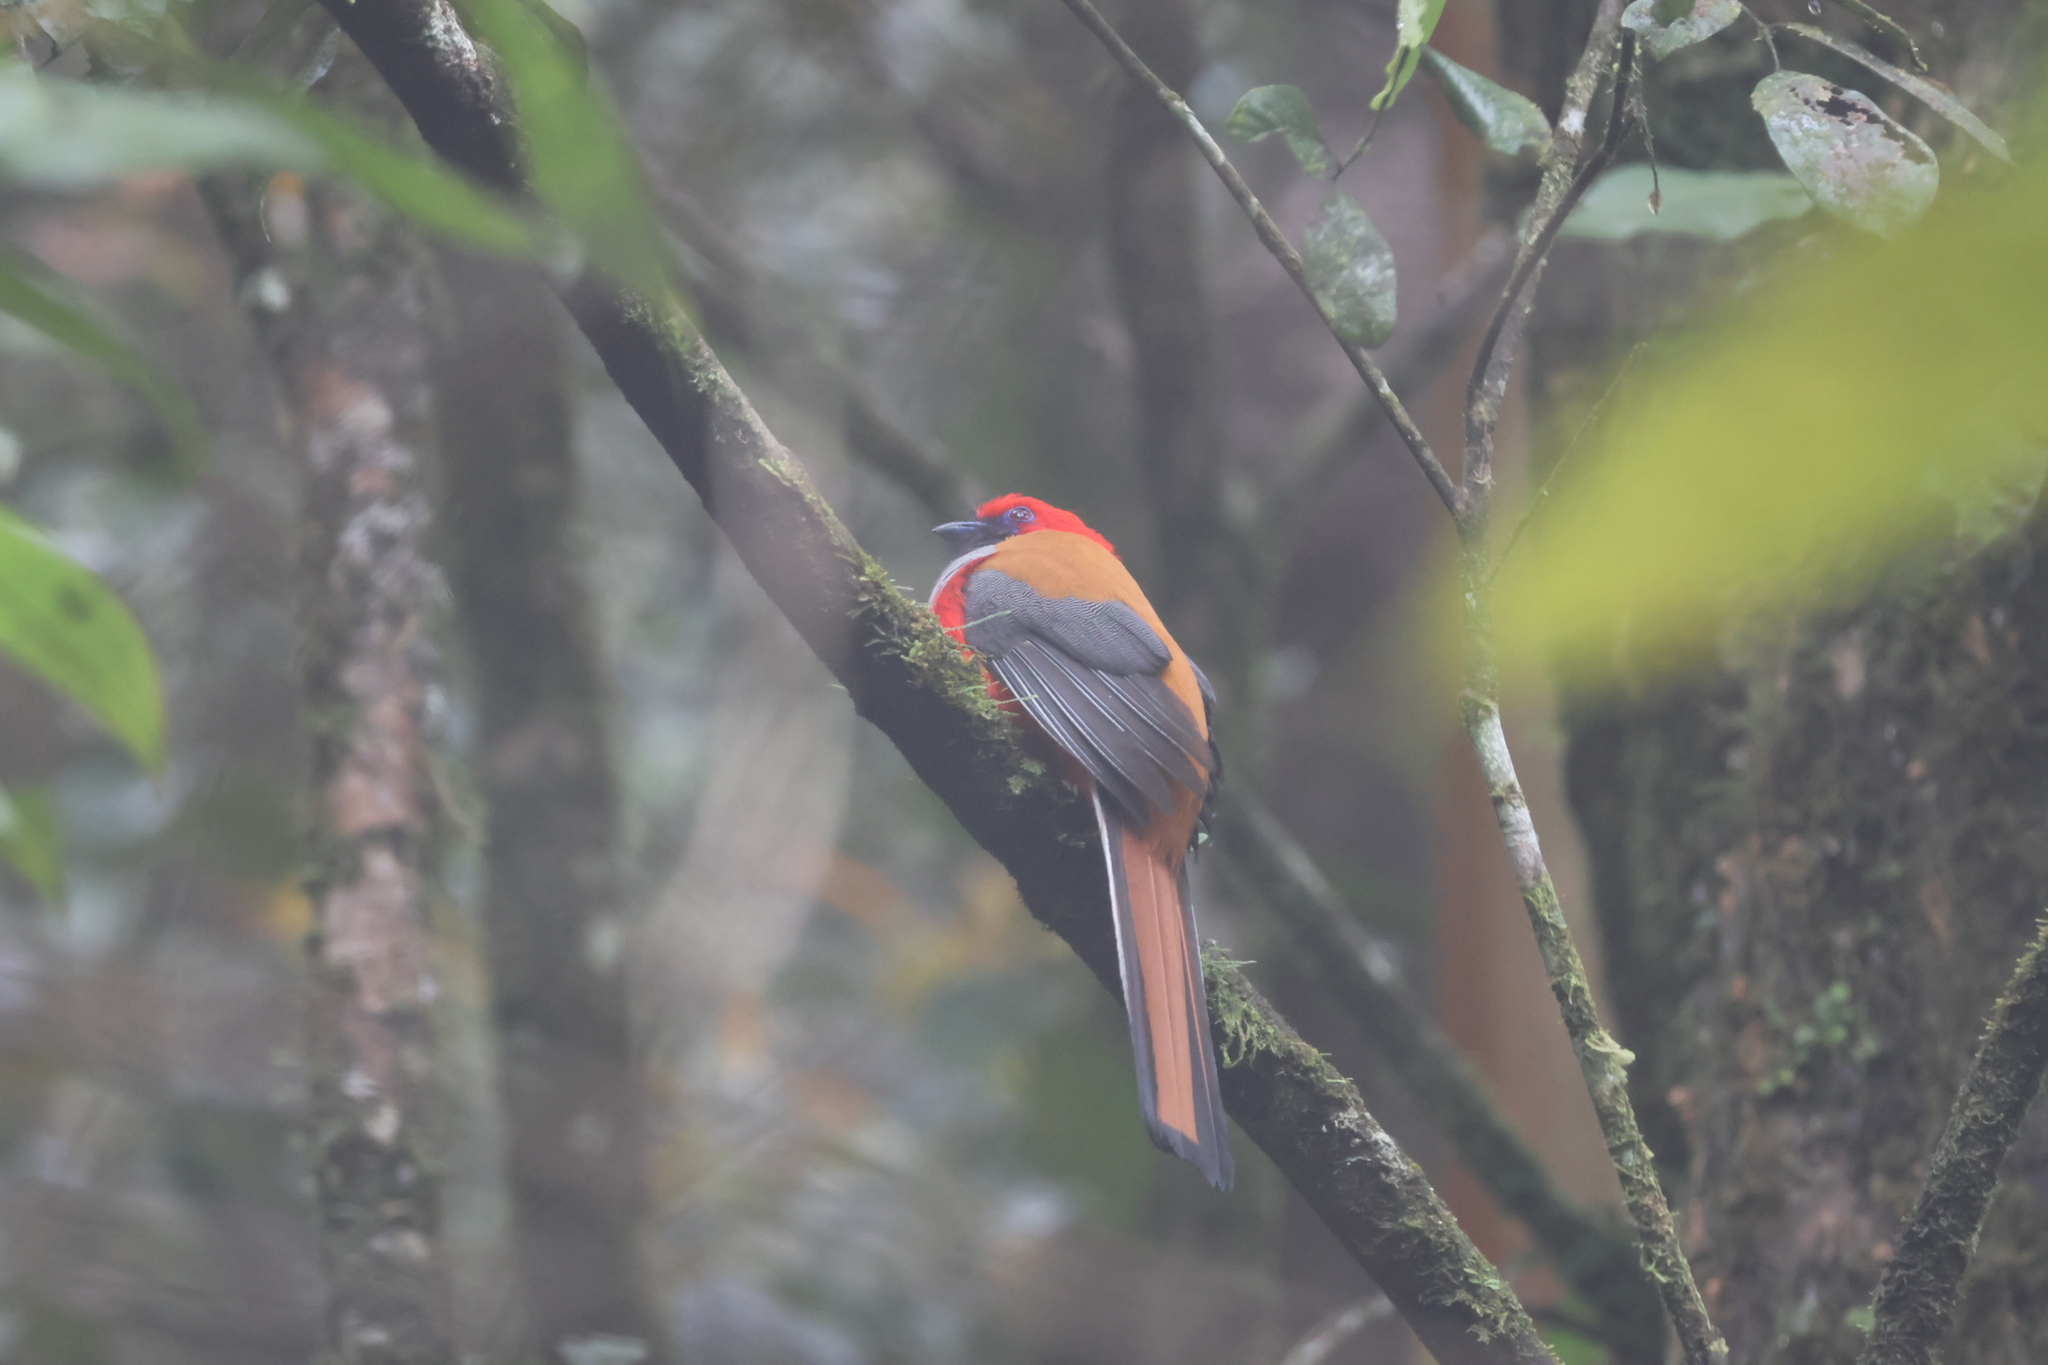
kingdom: Animalia
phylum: Chordata
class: Aves
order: Trogoniformes
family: Trogonidae
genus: Harpactes
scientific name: Harpactes whiteheadi
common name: Whitehead's trogon
